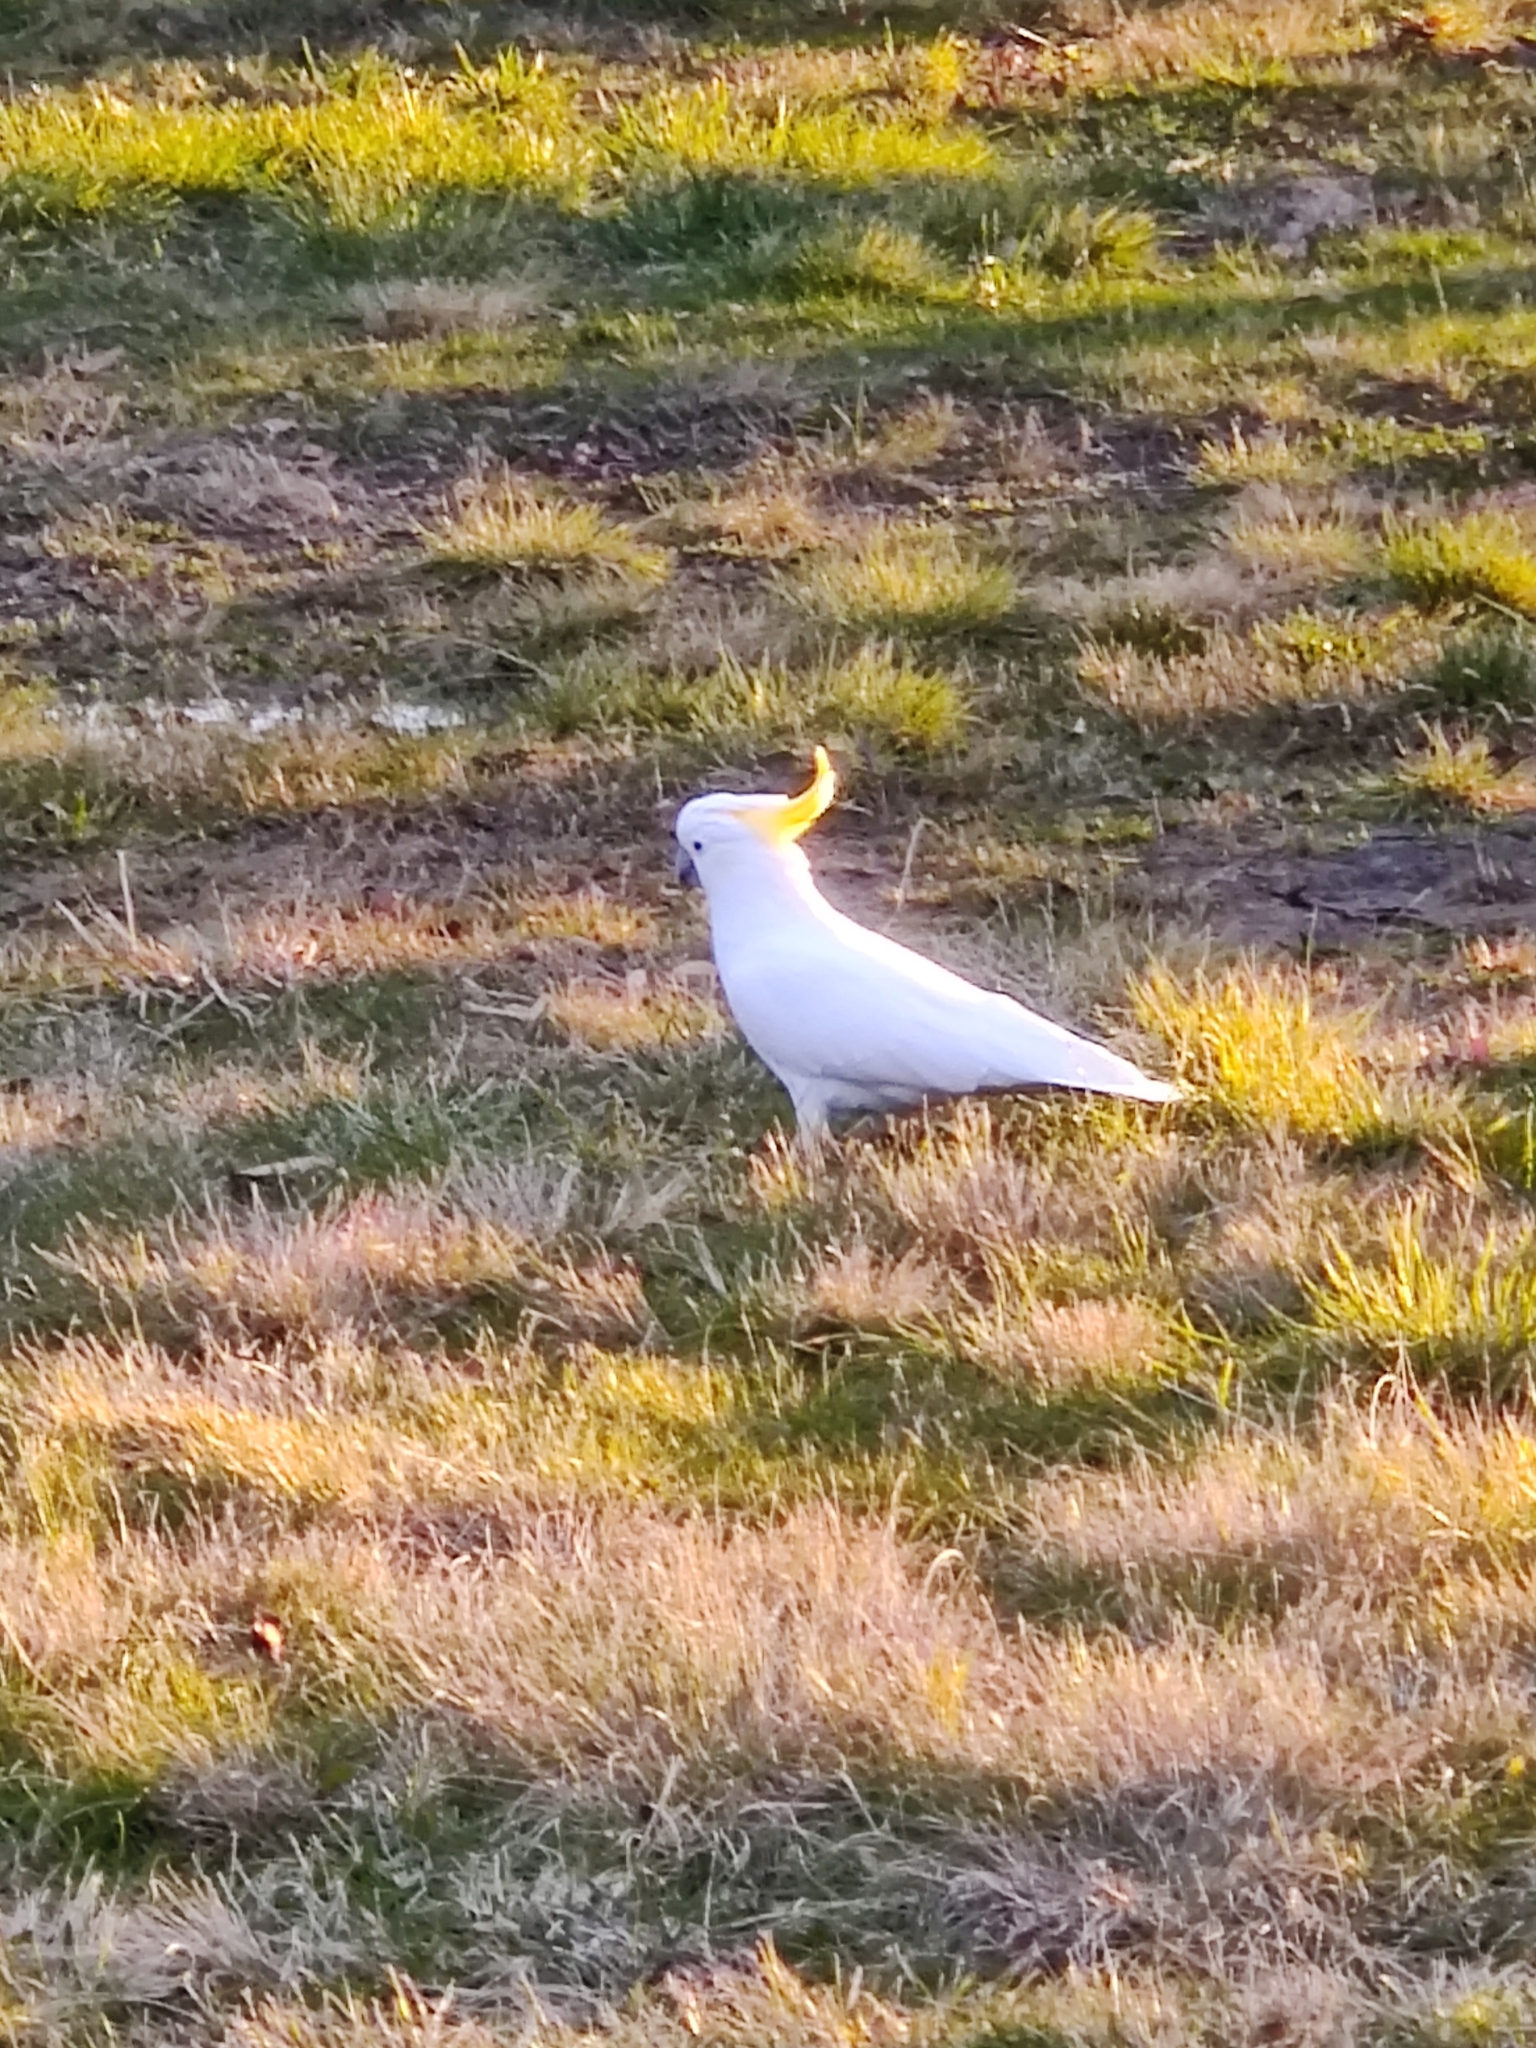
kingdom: Animalia
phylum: Chordata
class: Aves
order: Psittaciformes
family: Psittacidae
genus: Cacatua
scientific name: Cacatua galerita
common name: Sulphur-crested cockatoo
